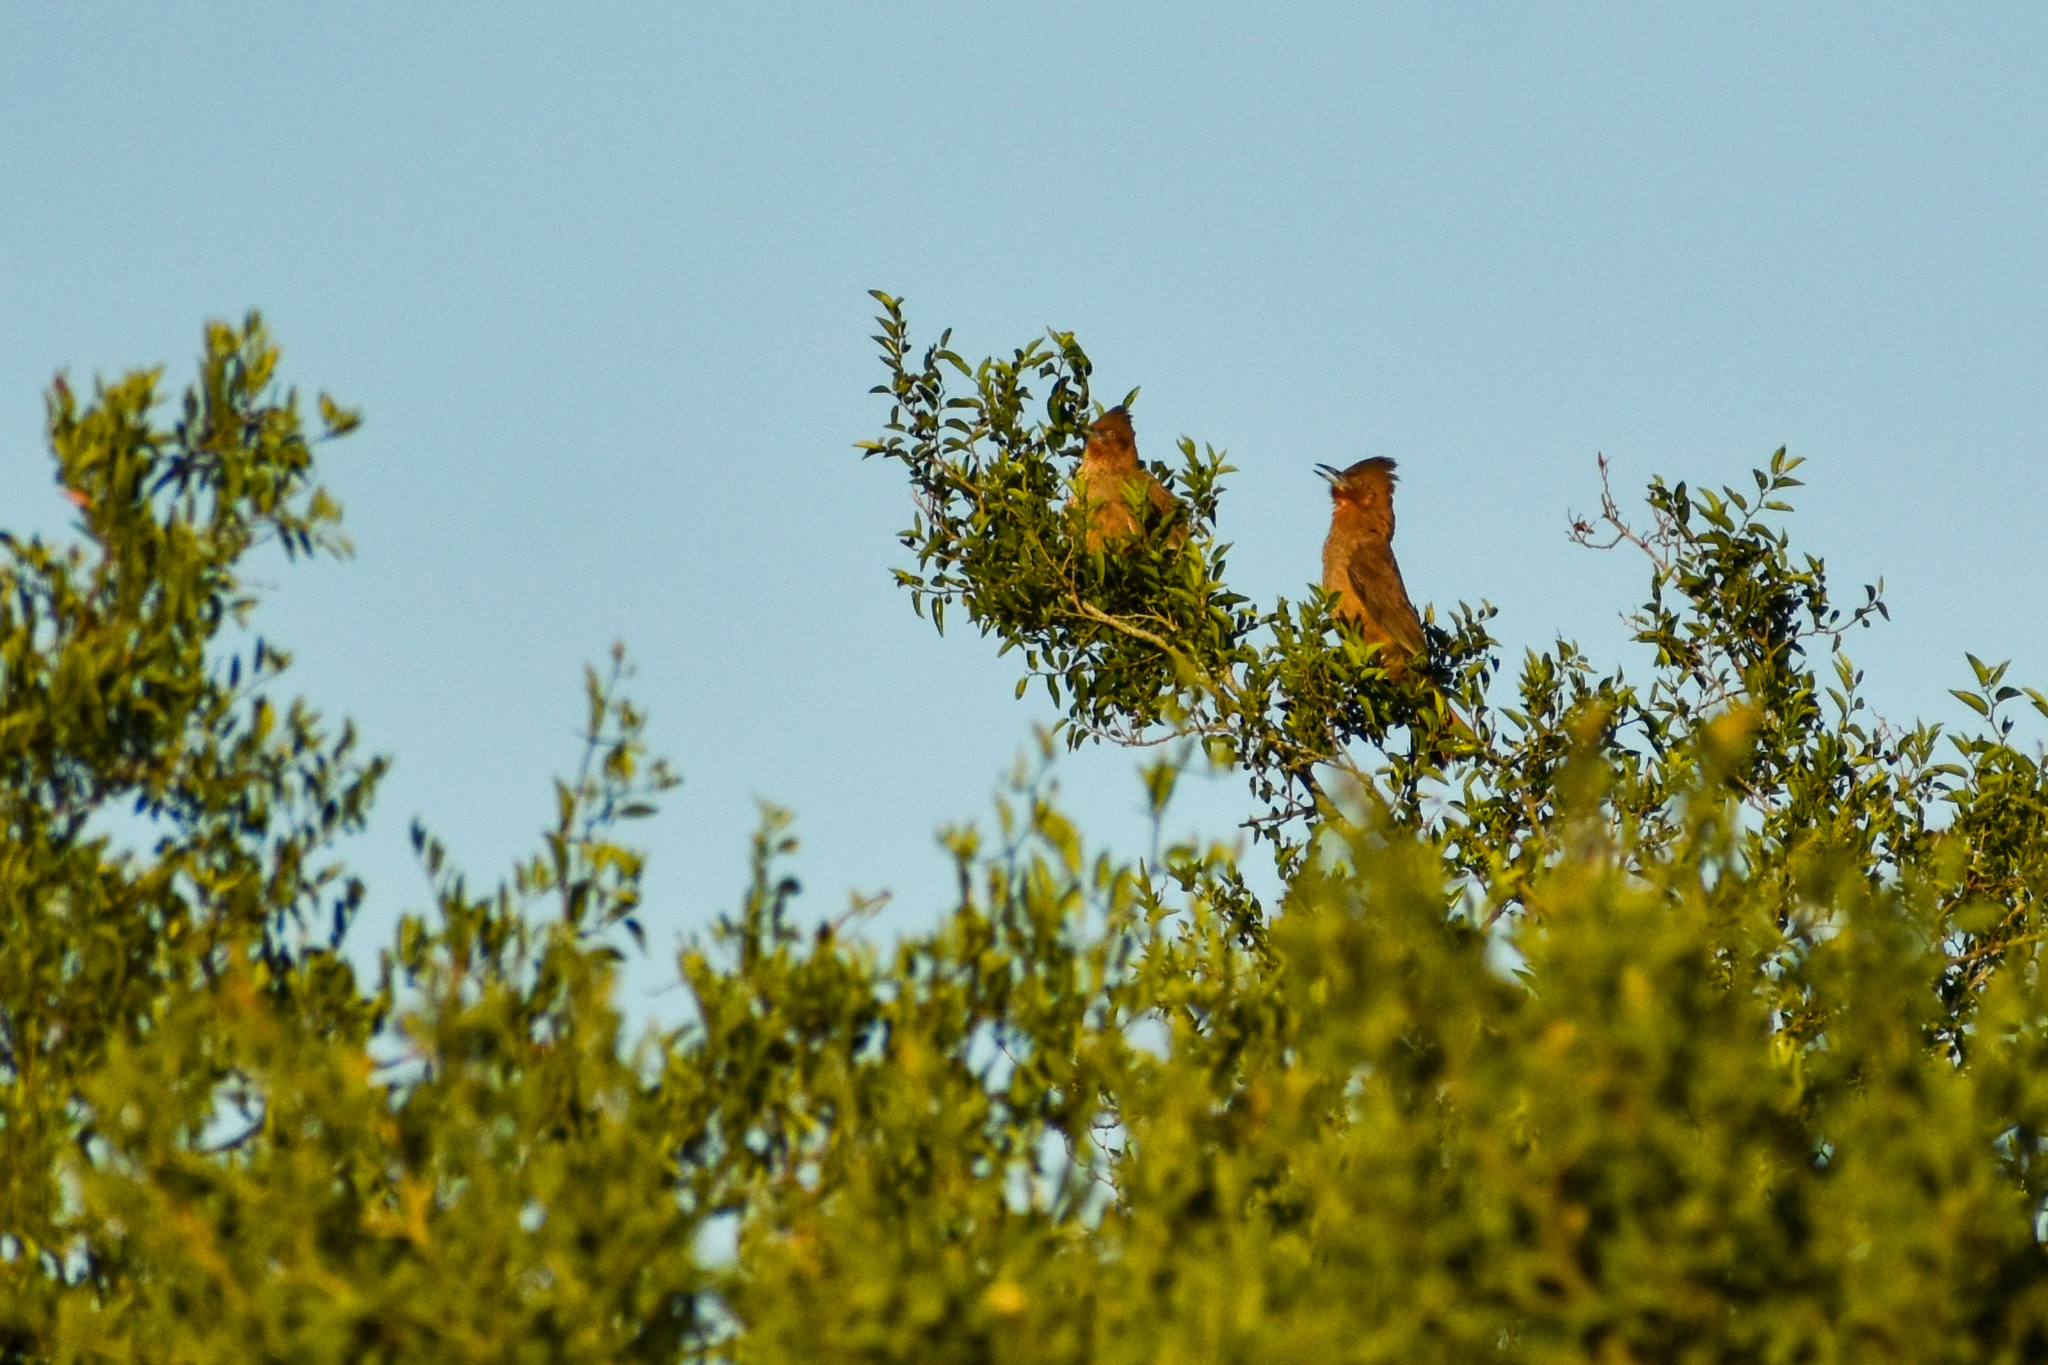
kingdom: Animalia
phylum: Chordata
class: Aves
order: Passeriformes
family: Furnariidae
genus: Pseudoseisura
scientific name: Pseudoseisura lophotes
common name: Brown cacholote
